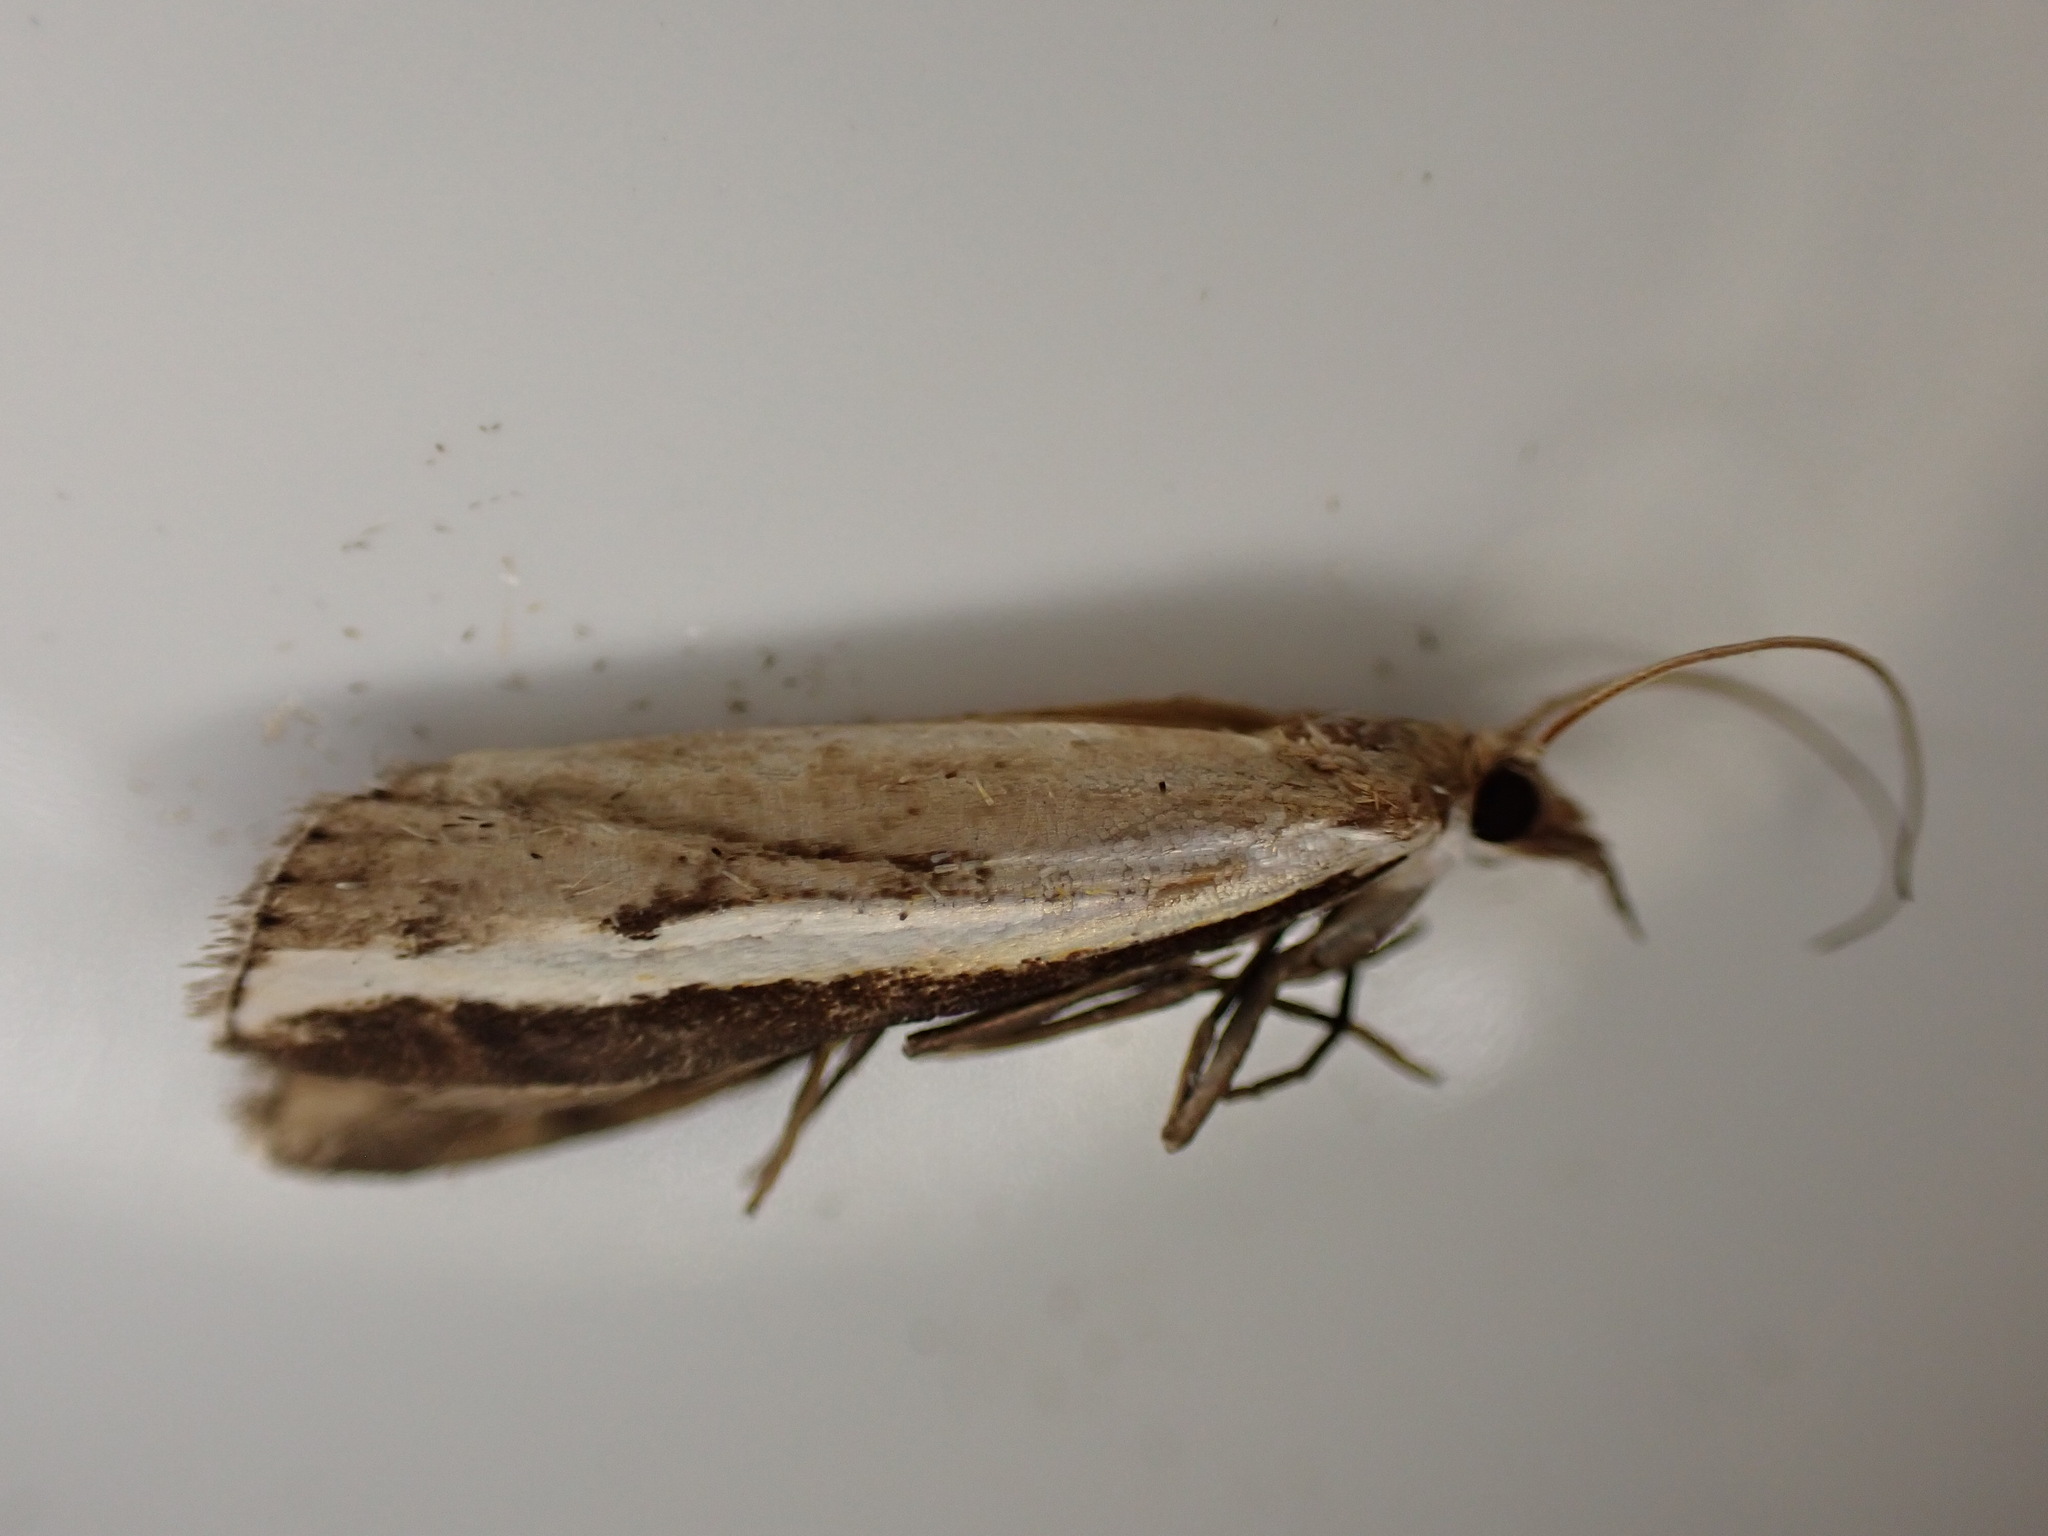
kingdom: Animalia
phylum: Arthropoda
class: Insecta
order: Lepidoptera
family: Crambidae
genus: Orocrambus
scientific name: Orocrambus flexuosellus
